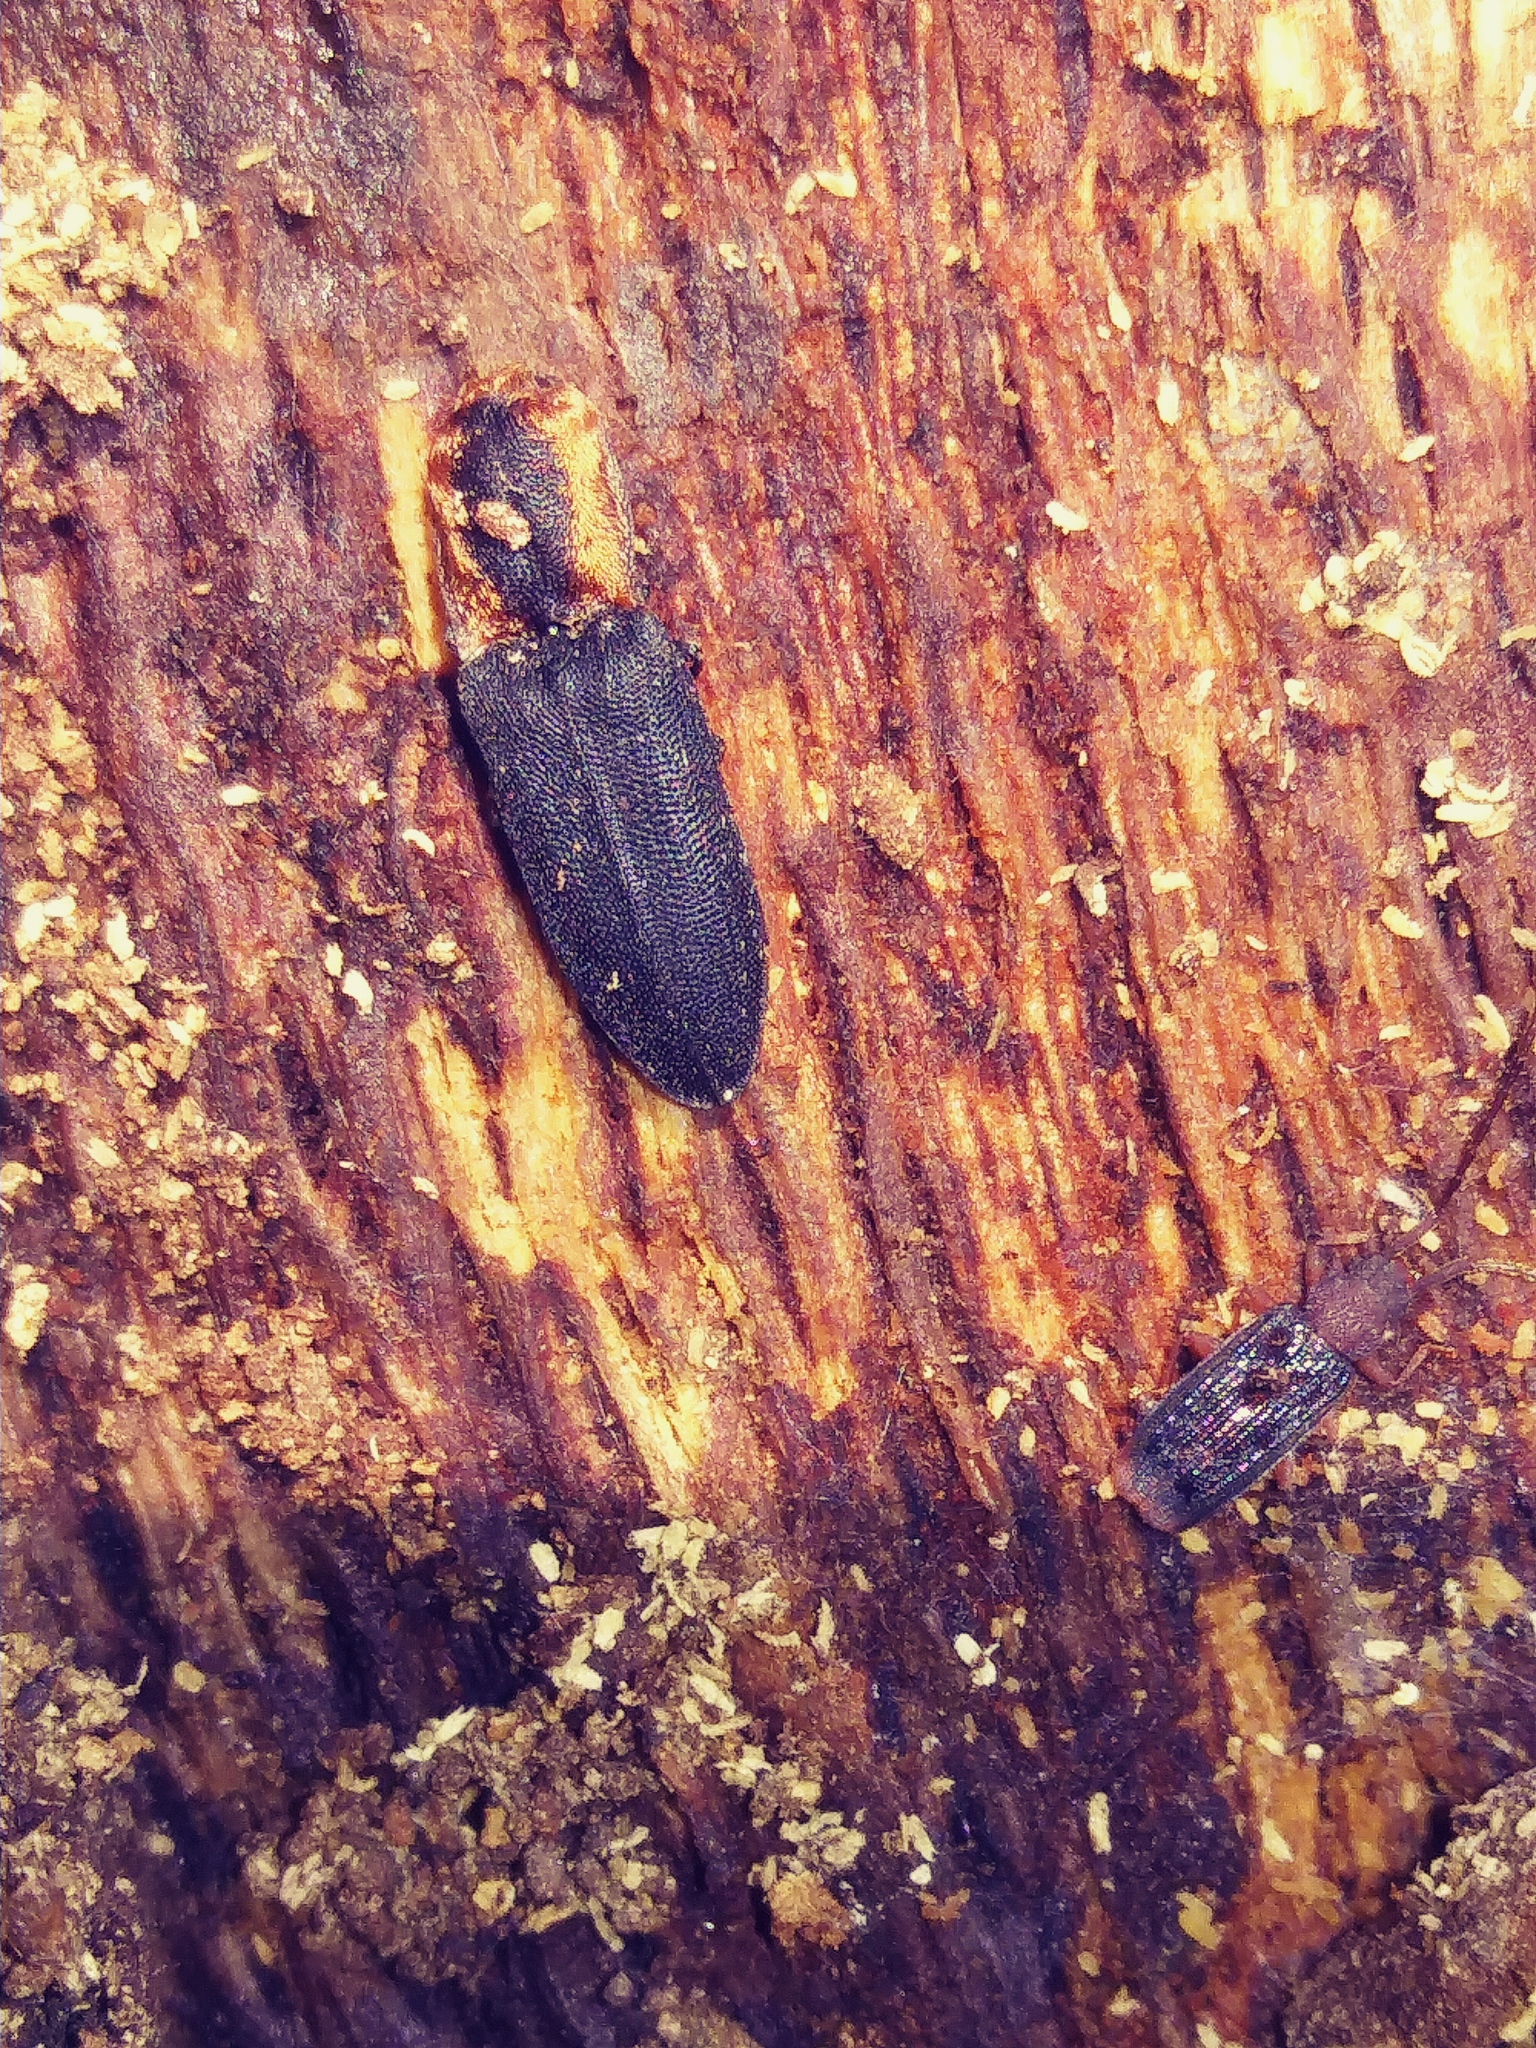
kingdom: Animalia
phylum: Arthropoda
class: Insecta
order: Coleoptera
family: Elateridae
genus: Lacon
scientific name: Lacon discoideus
